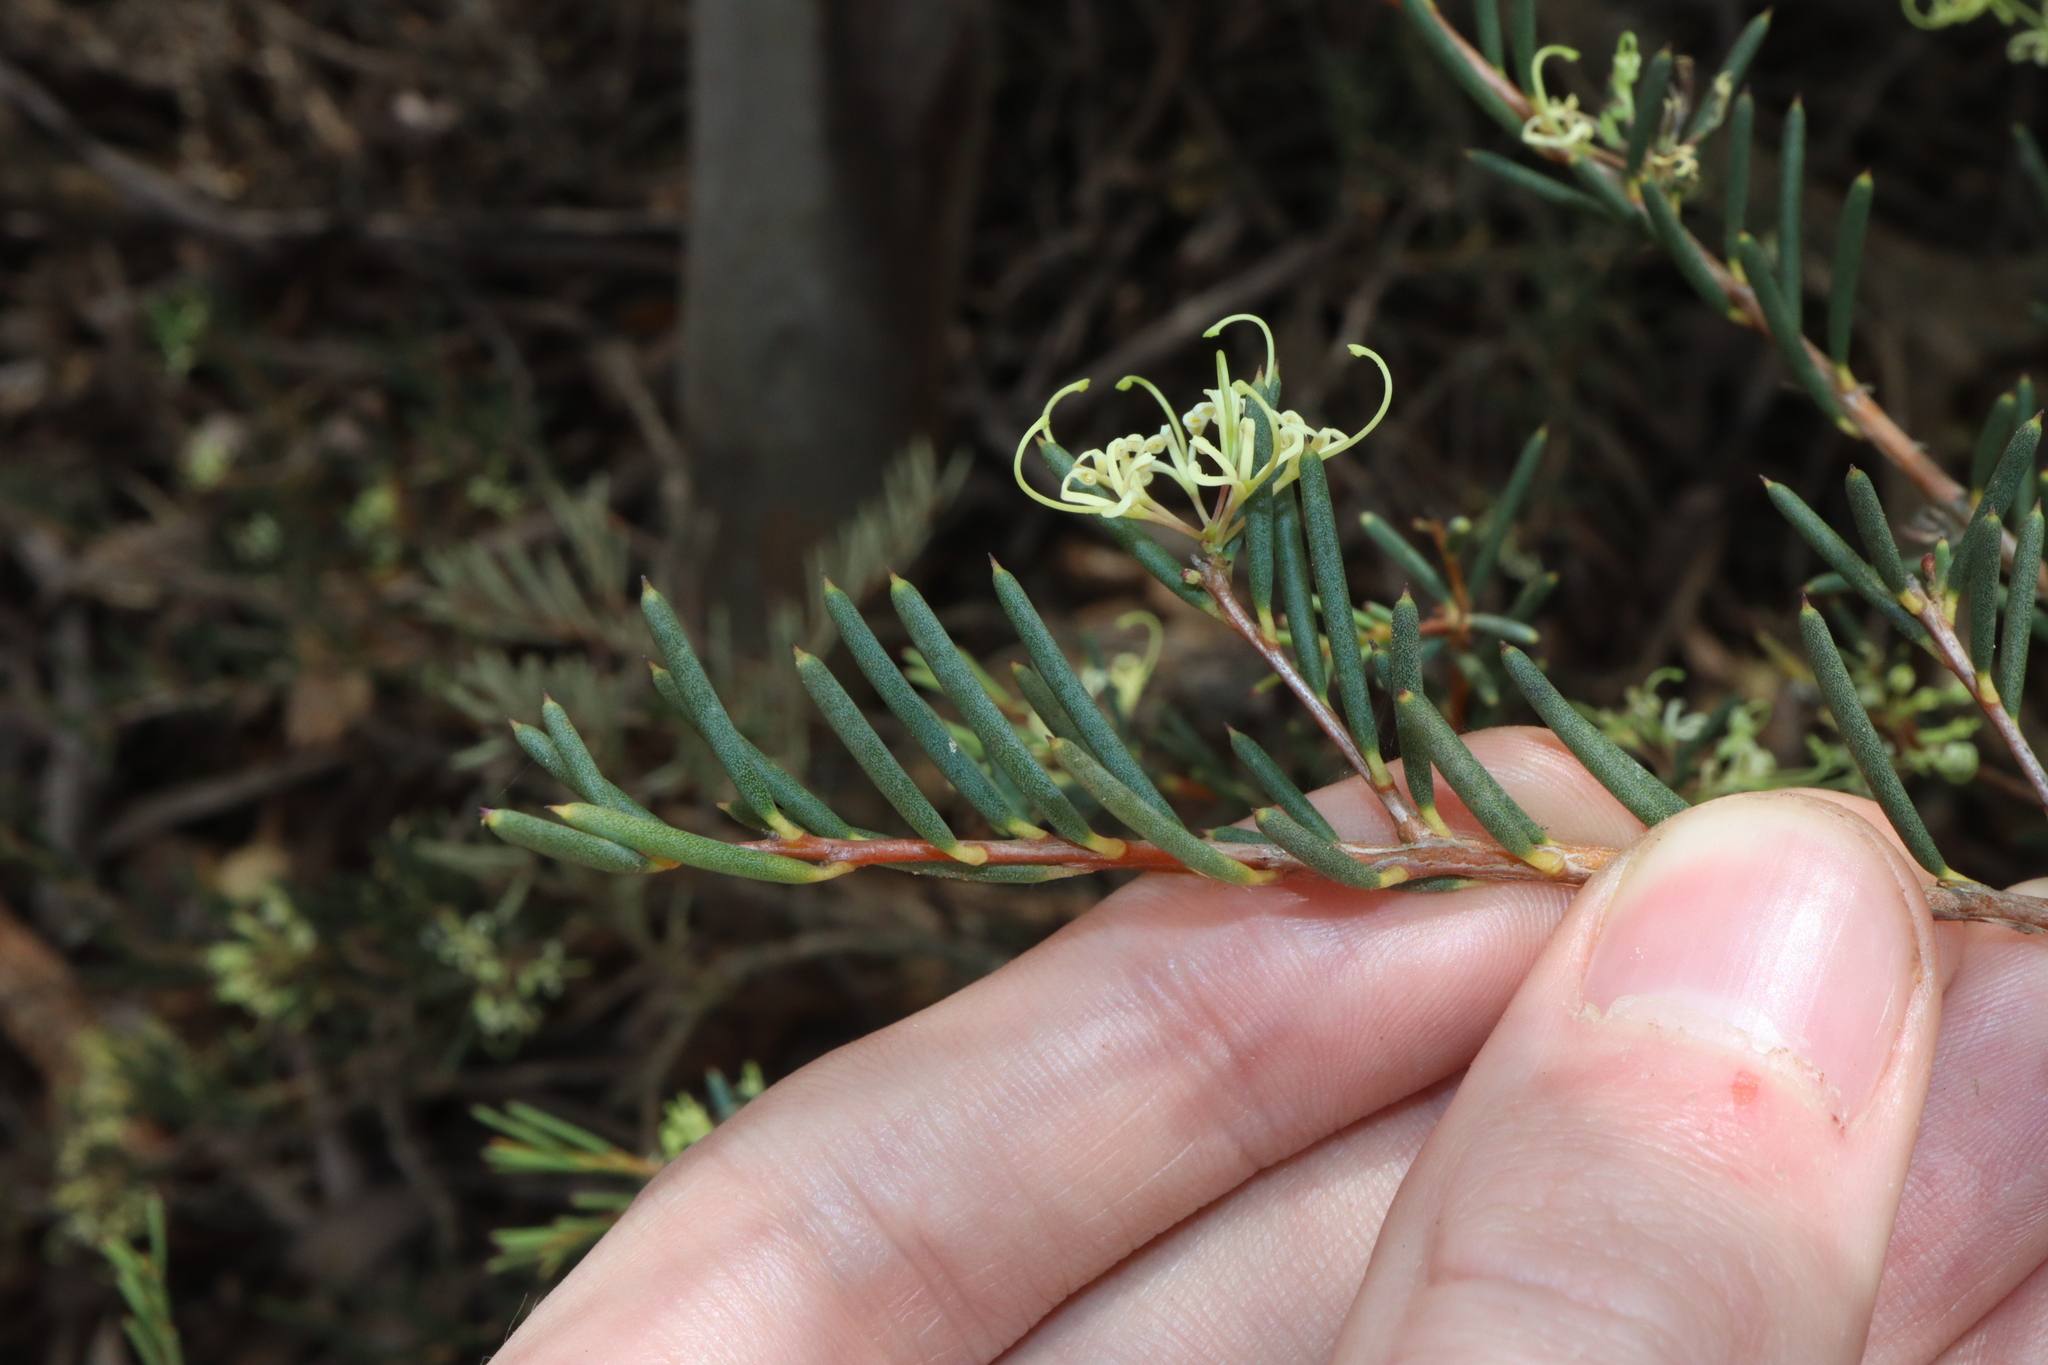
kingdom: Plantae
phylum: Tracheophyta
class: Magnoliopsida
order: Proteales
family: Proteaceae
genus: Hakea
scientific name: Hakea commutata
